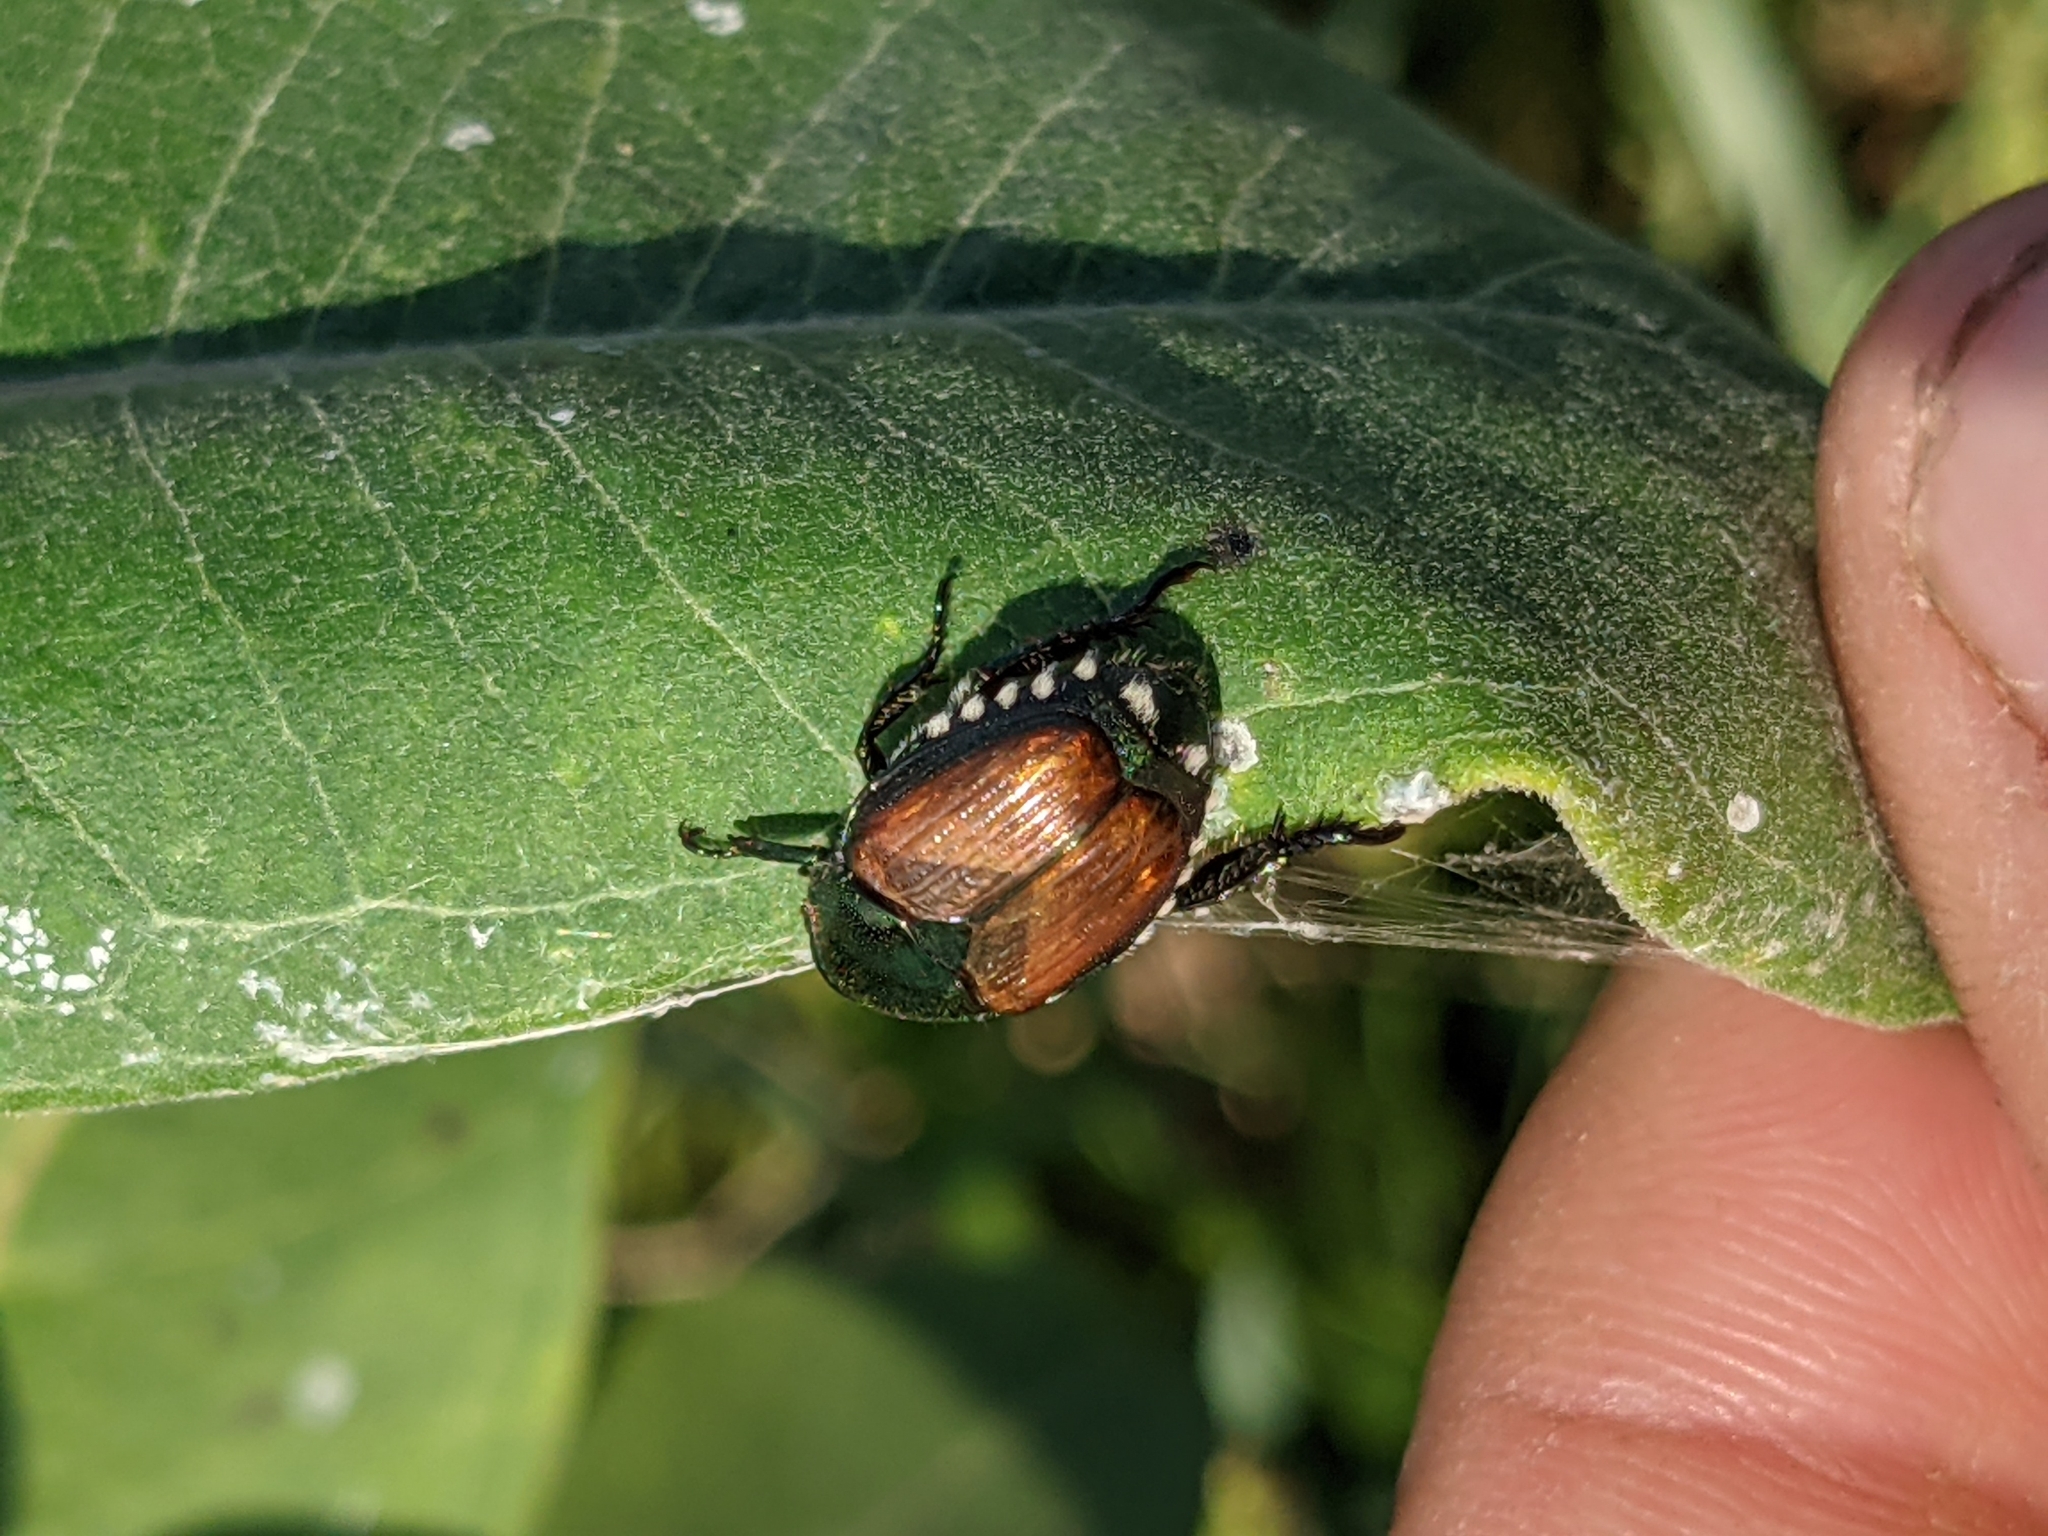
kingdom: Animalia
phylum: Arthropoda
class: Insecta
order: Coleoptera
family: Scarabaeidae
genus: Popillia
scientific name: Popillia japonica
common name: Japanese beetle
